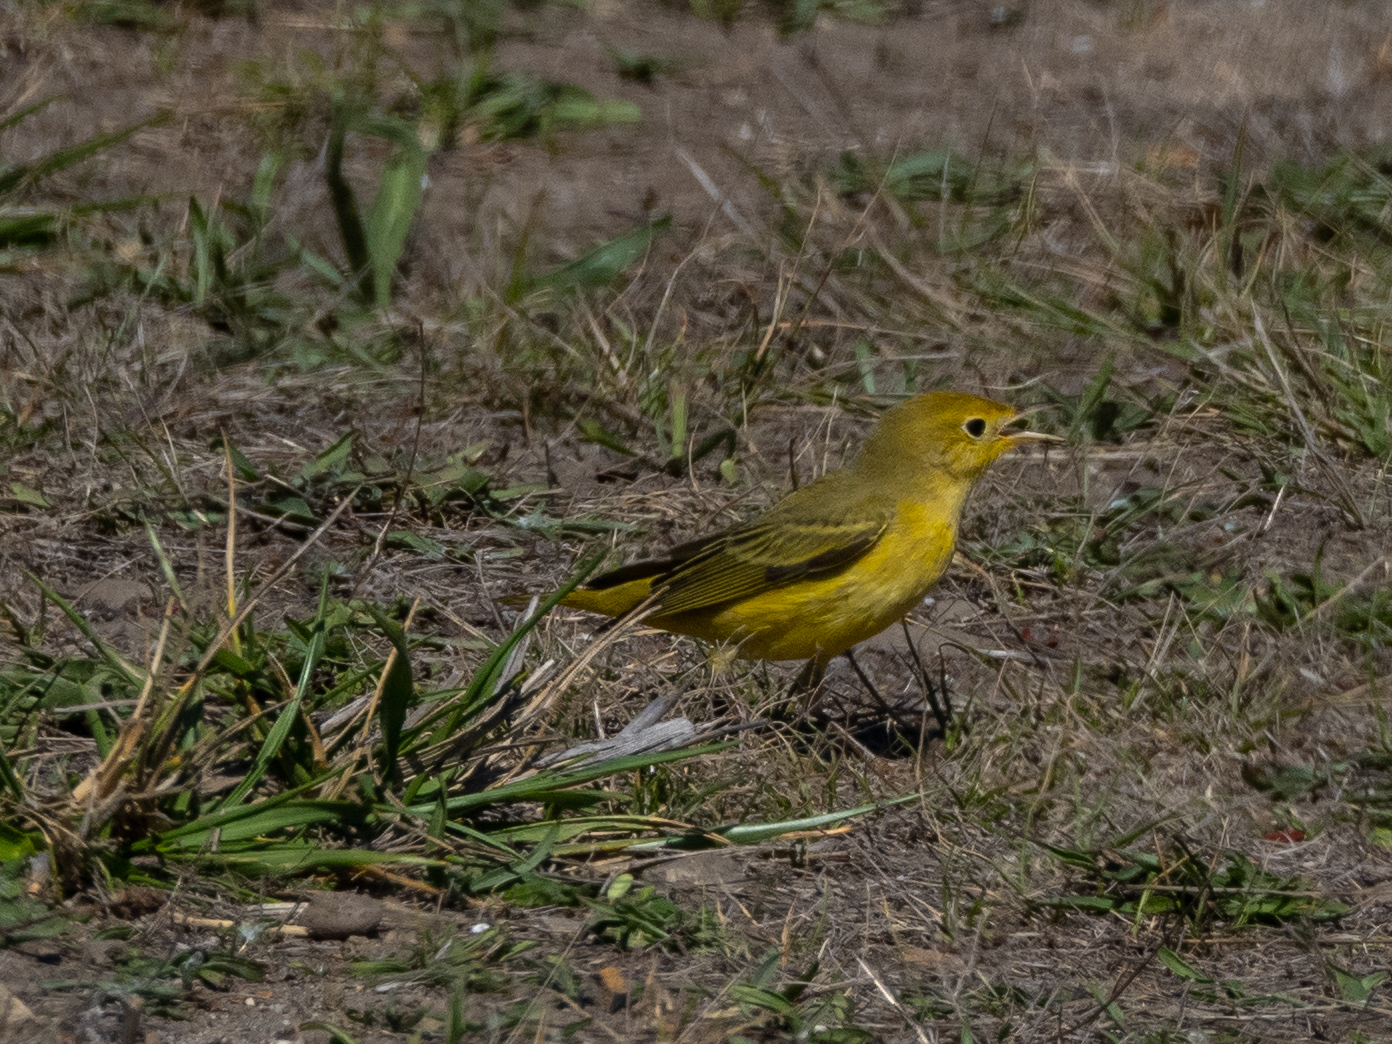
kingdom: Animalia
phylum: Chordata
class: Aves
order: Passeriformes
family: Parulidae
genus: Setophaga
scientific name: Setophaga petechia
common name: Yellow warbler
